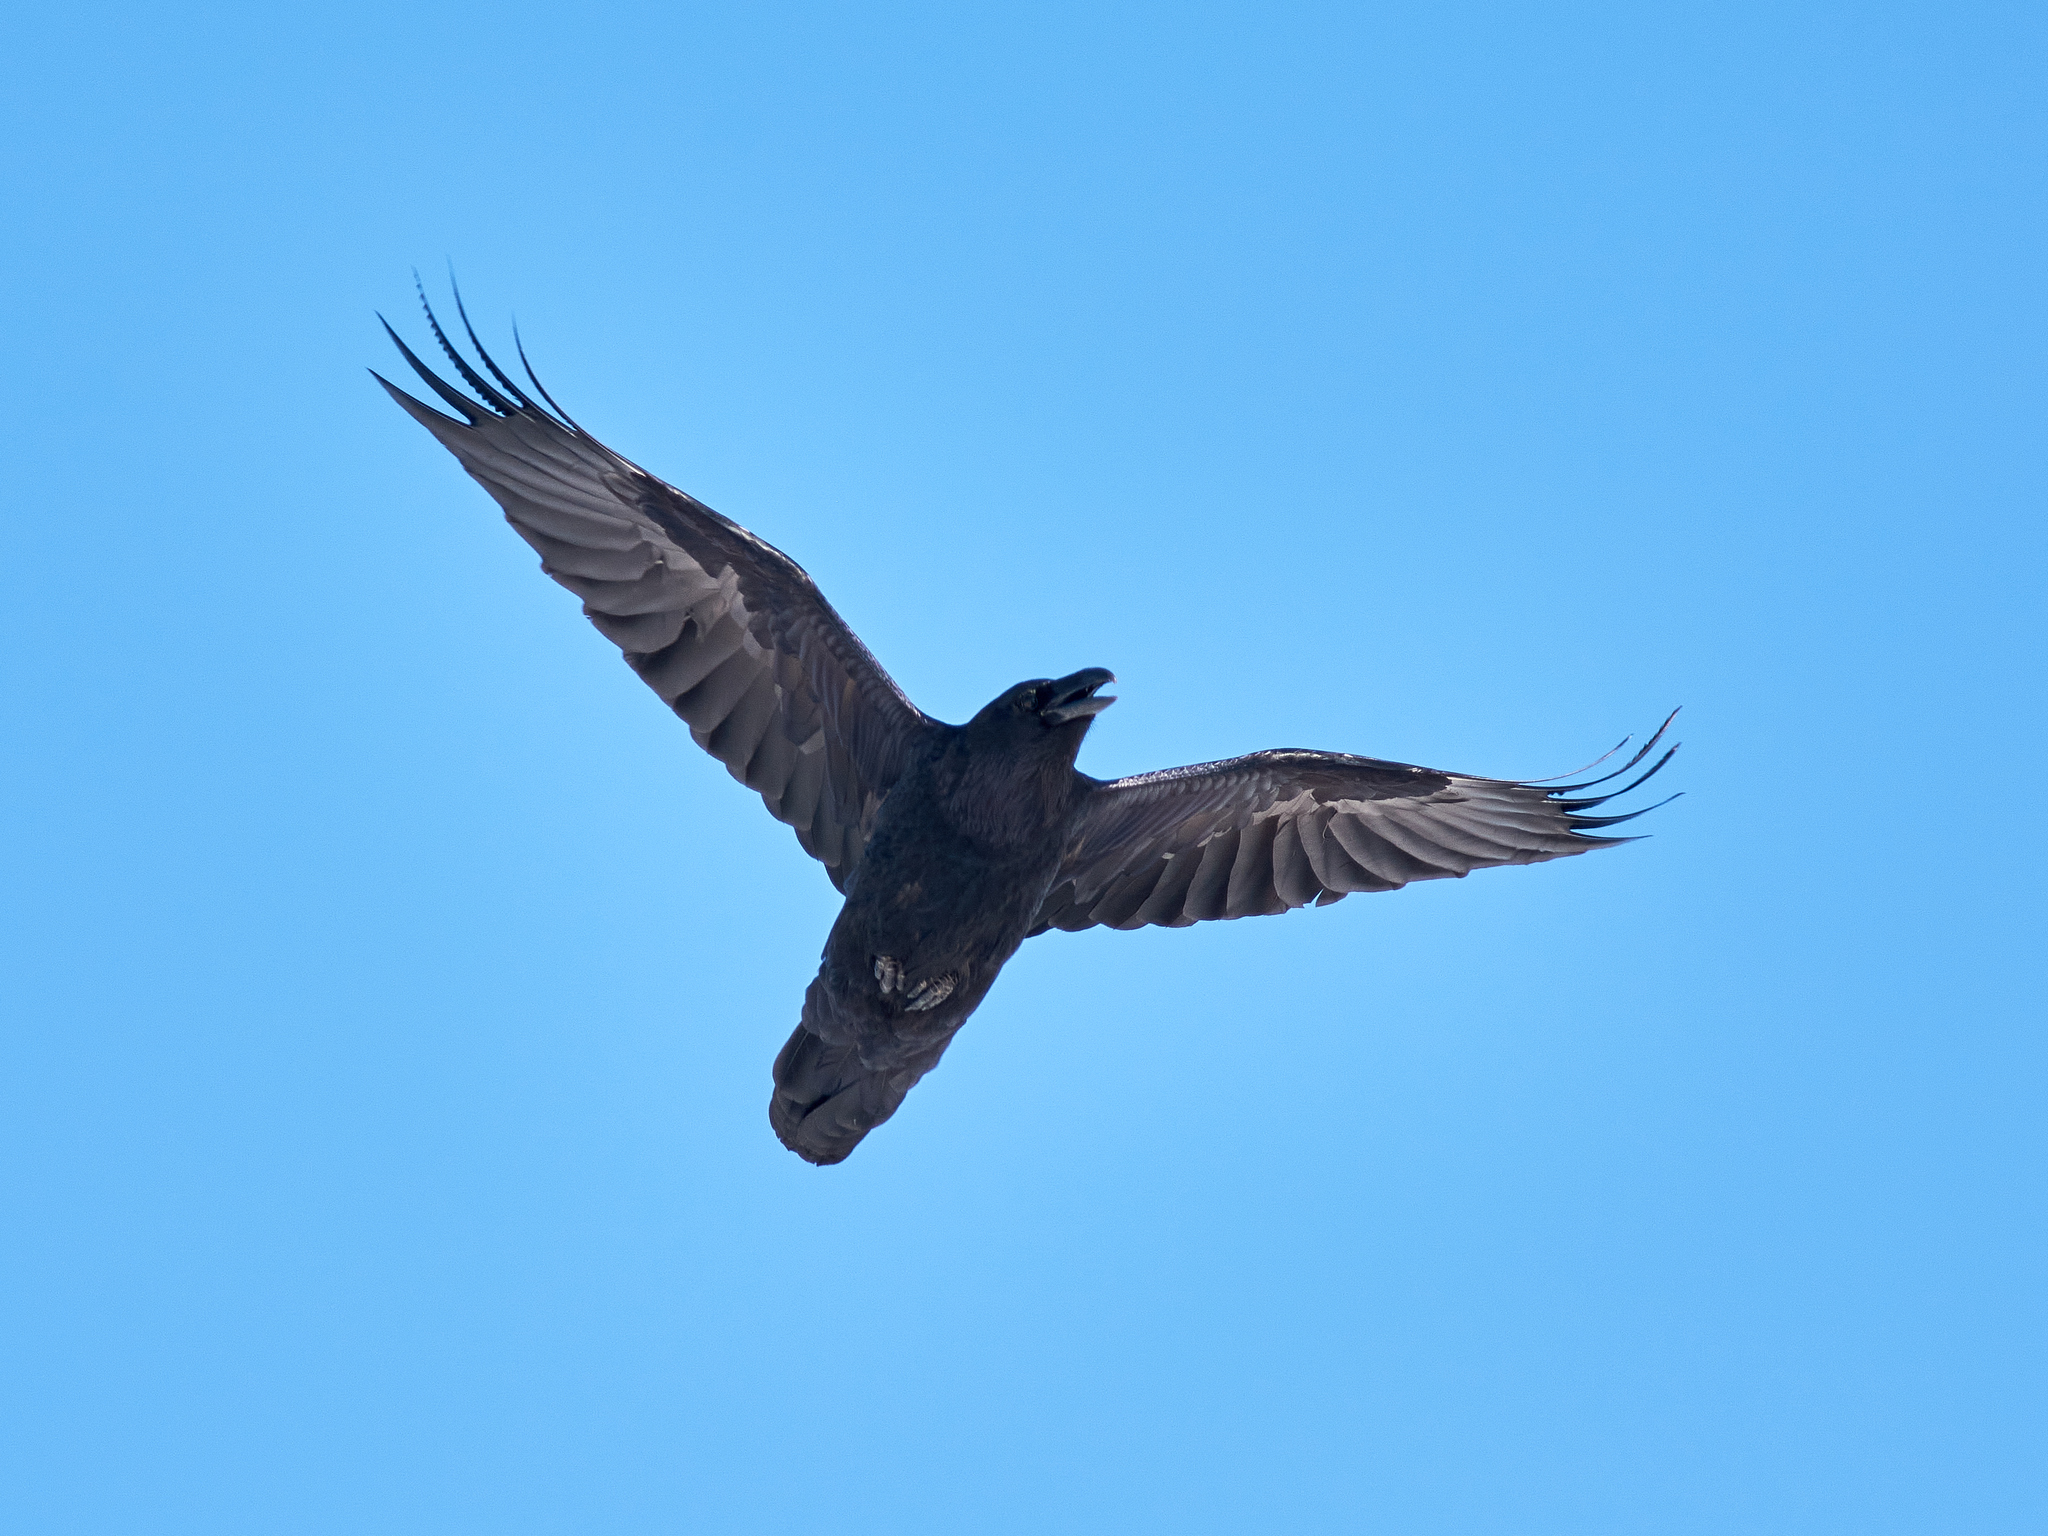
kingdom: Animalia
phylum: Chordata
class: Aves
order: Passeriformes
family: Corvidae
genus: Corvus
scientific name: Corvus corax
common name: Common raven
